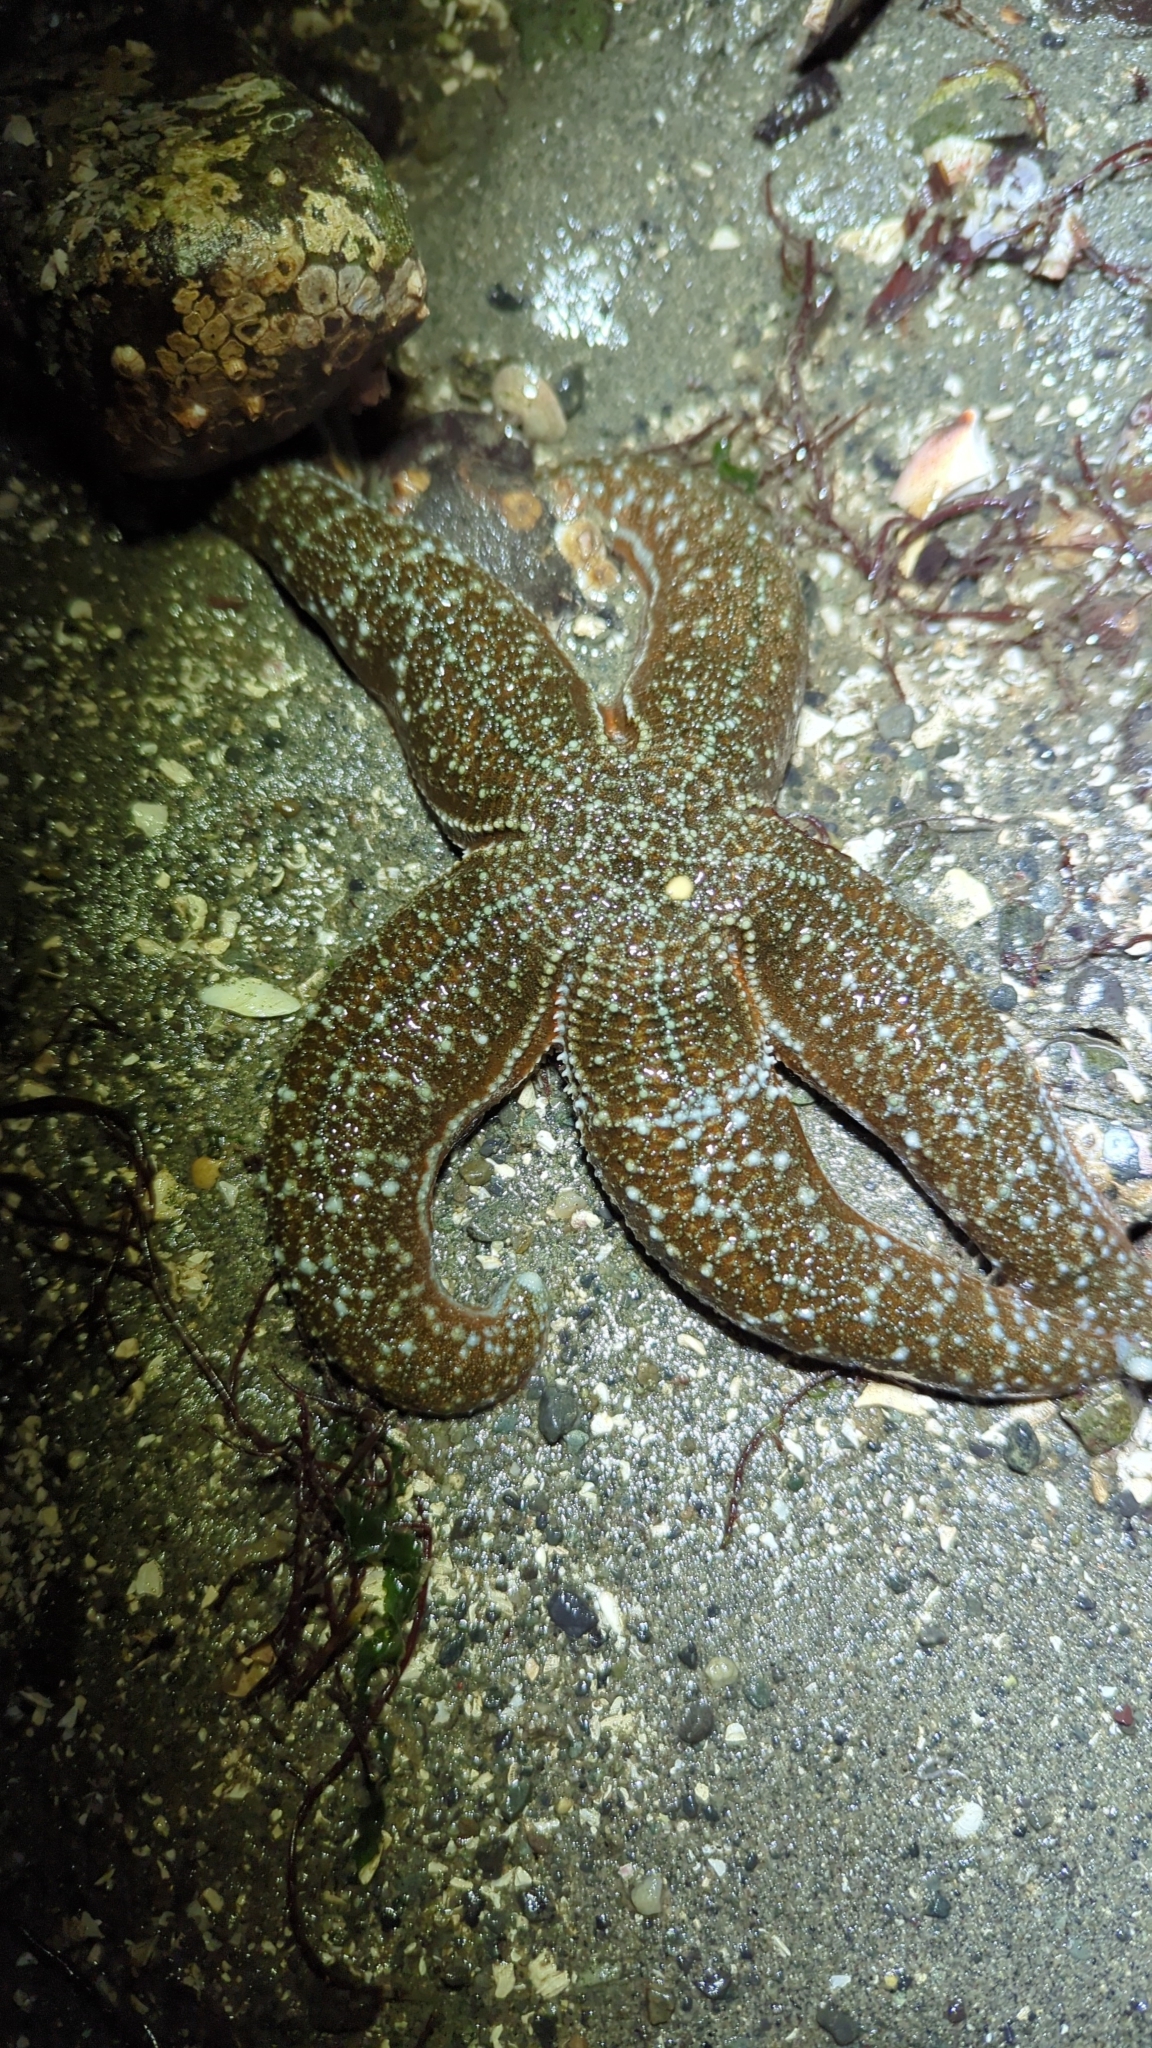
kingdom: Animalia
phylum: Echinodermata
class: Asteroidea
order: Forcipulatida
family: Asteriidae
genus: Evasterias
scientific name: Evasterias troschelii
